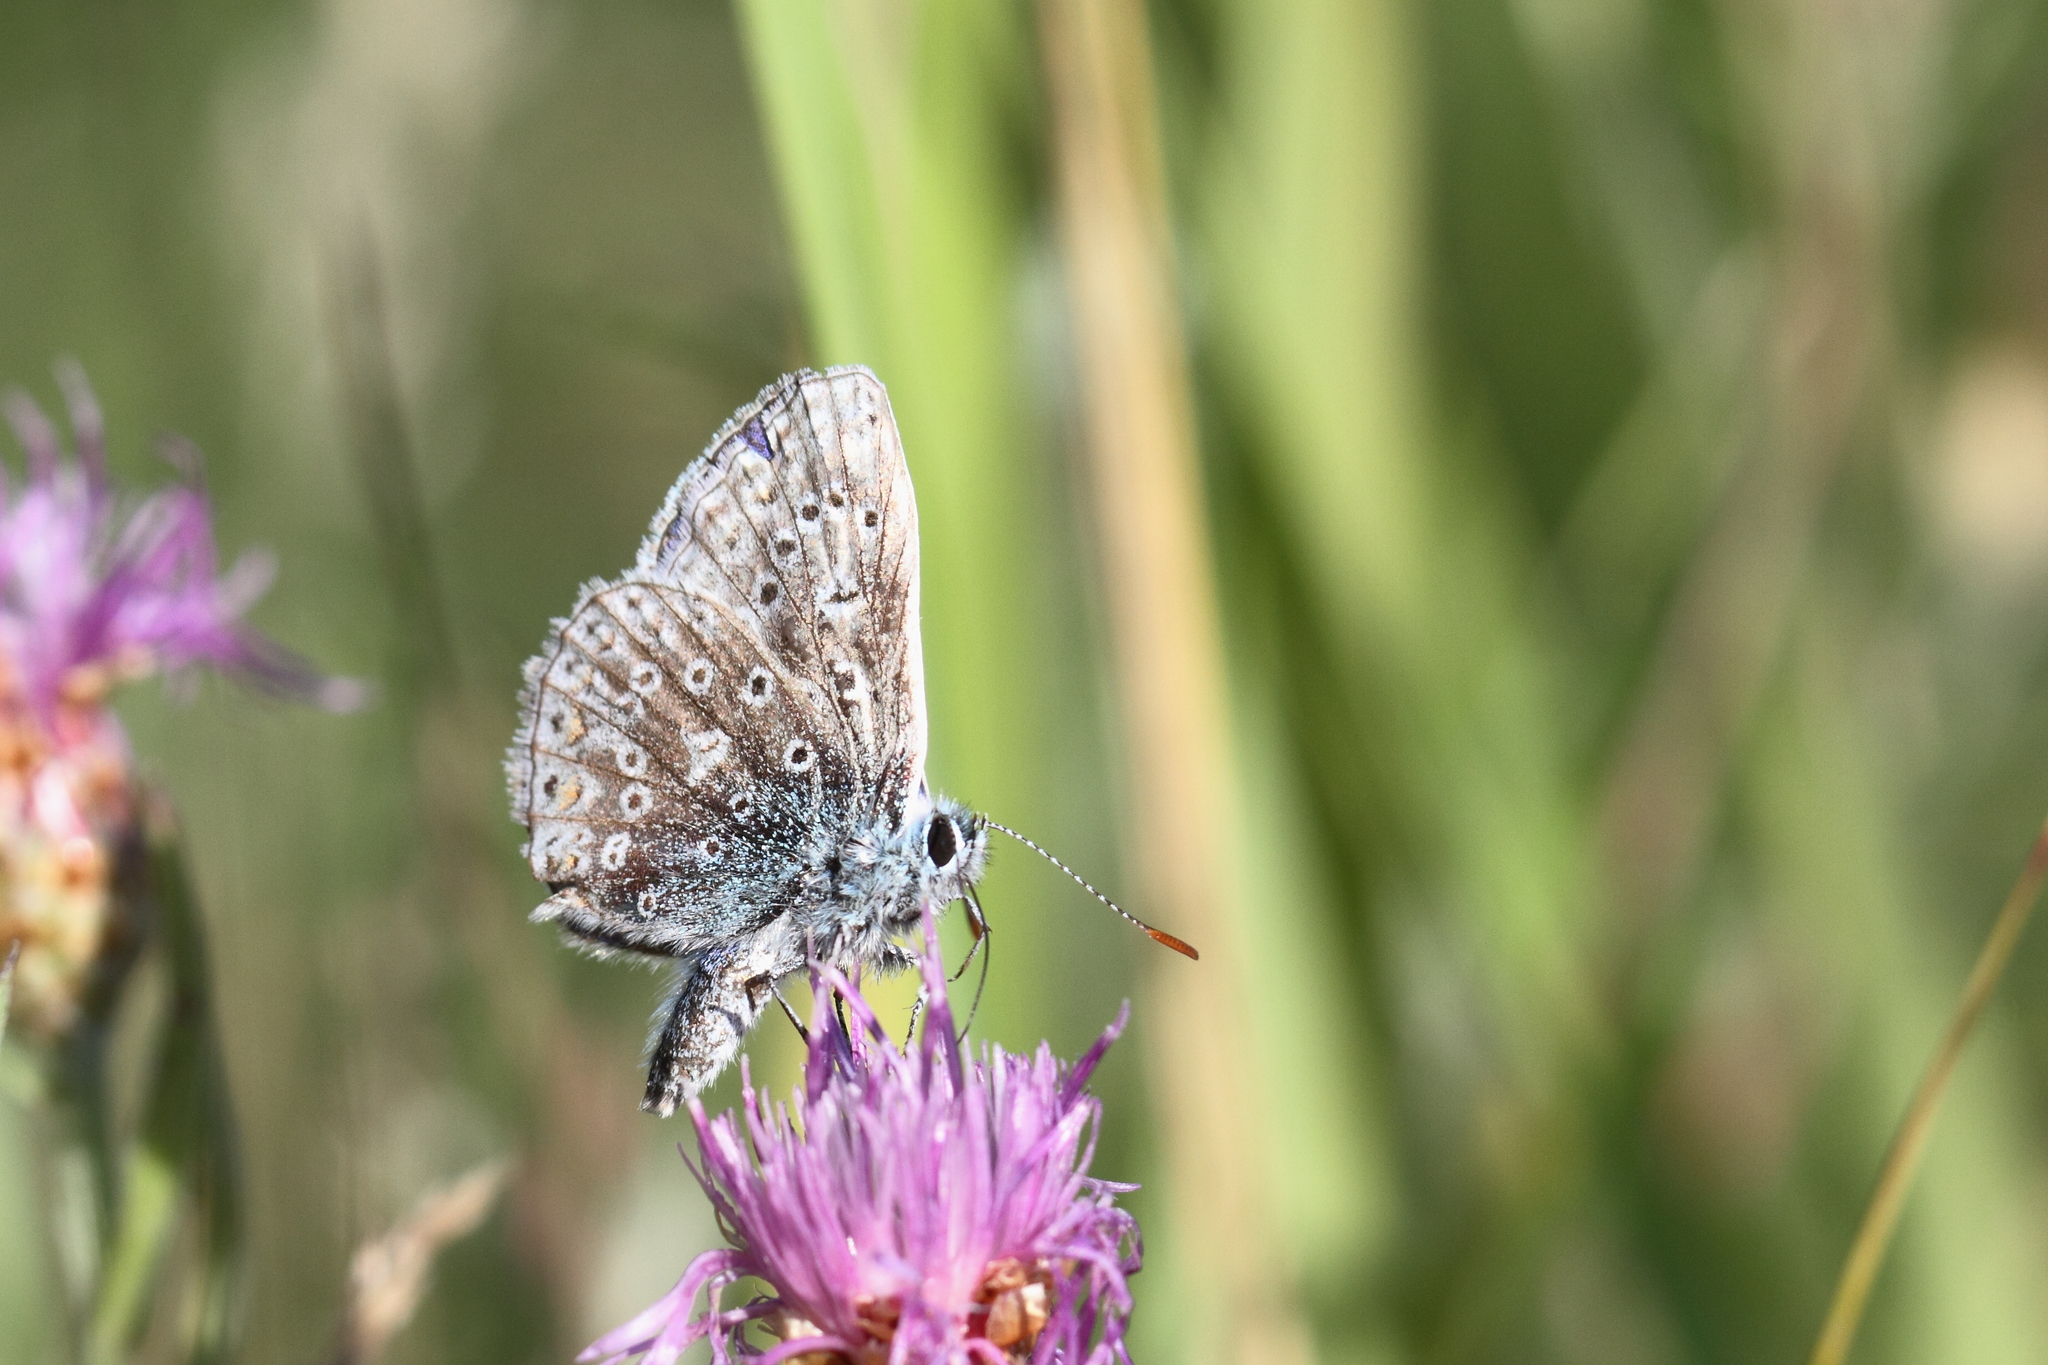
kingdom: Animalia
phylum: Arthropoda
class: Insecta
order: Lepidoptera
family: Lycaenidae
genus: Polyommatus
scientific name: Polyommatus icarus
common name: Common blue
